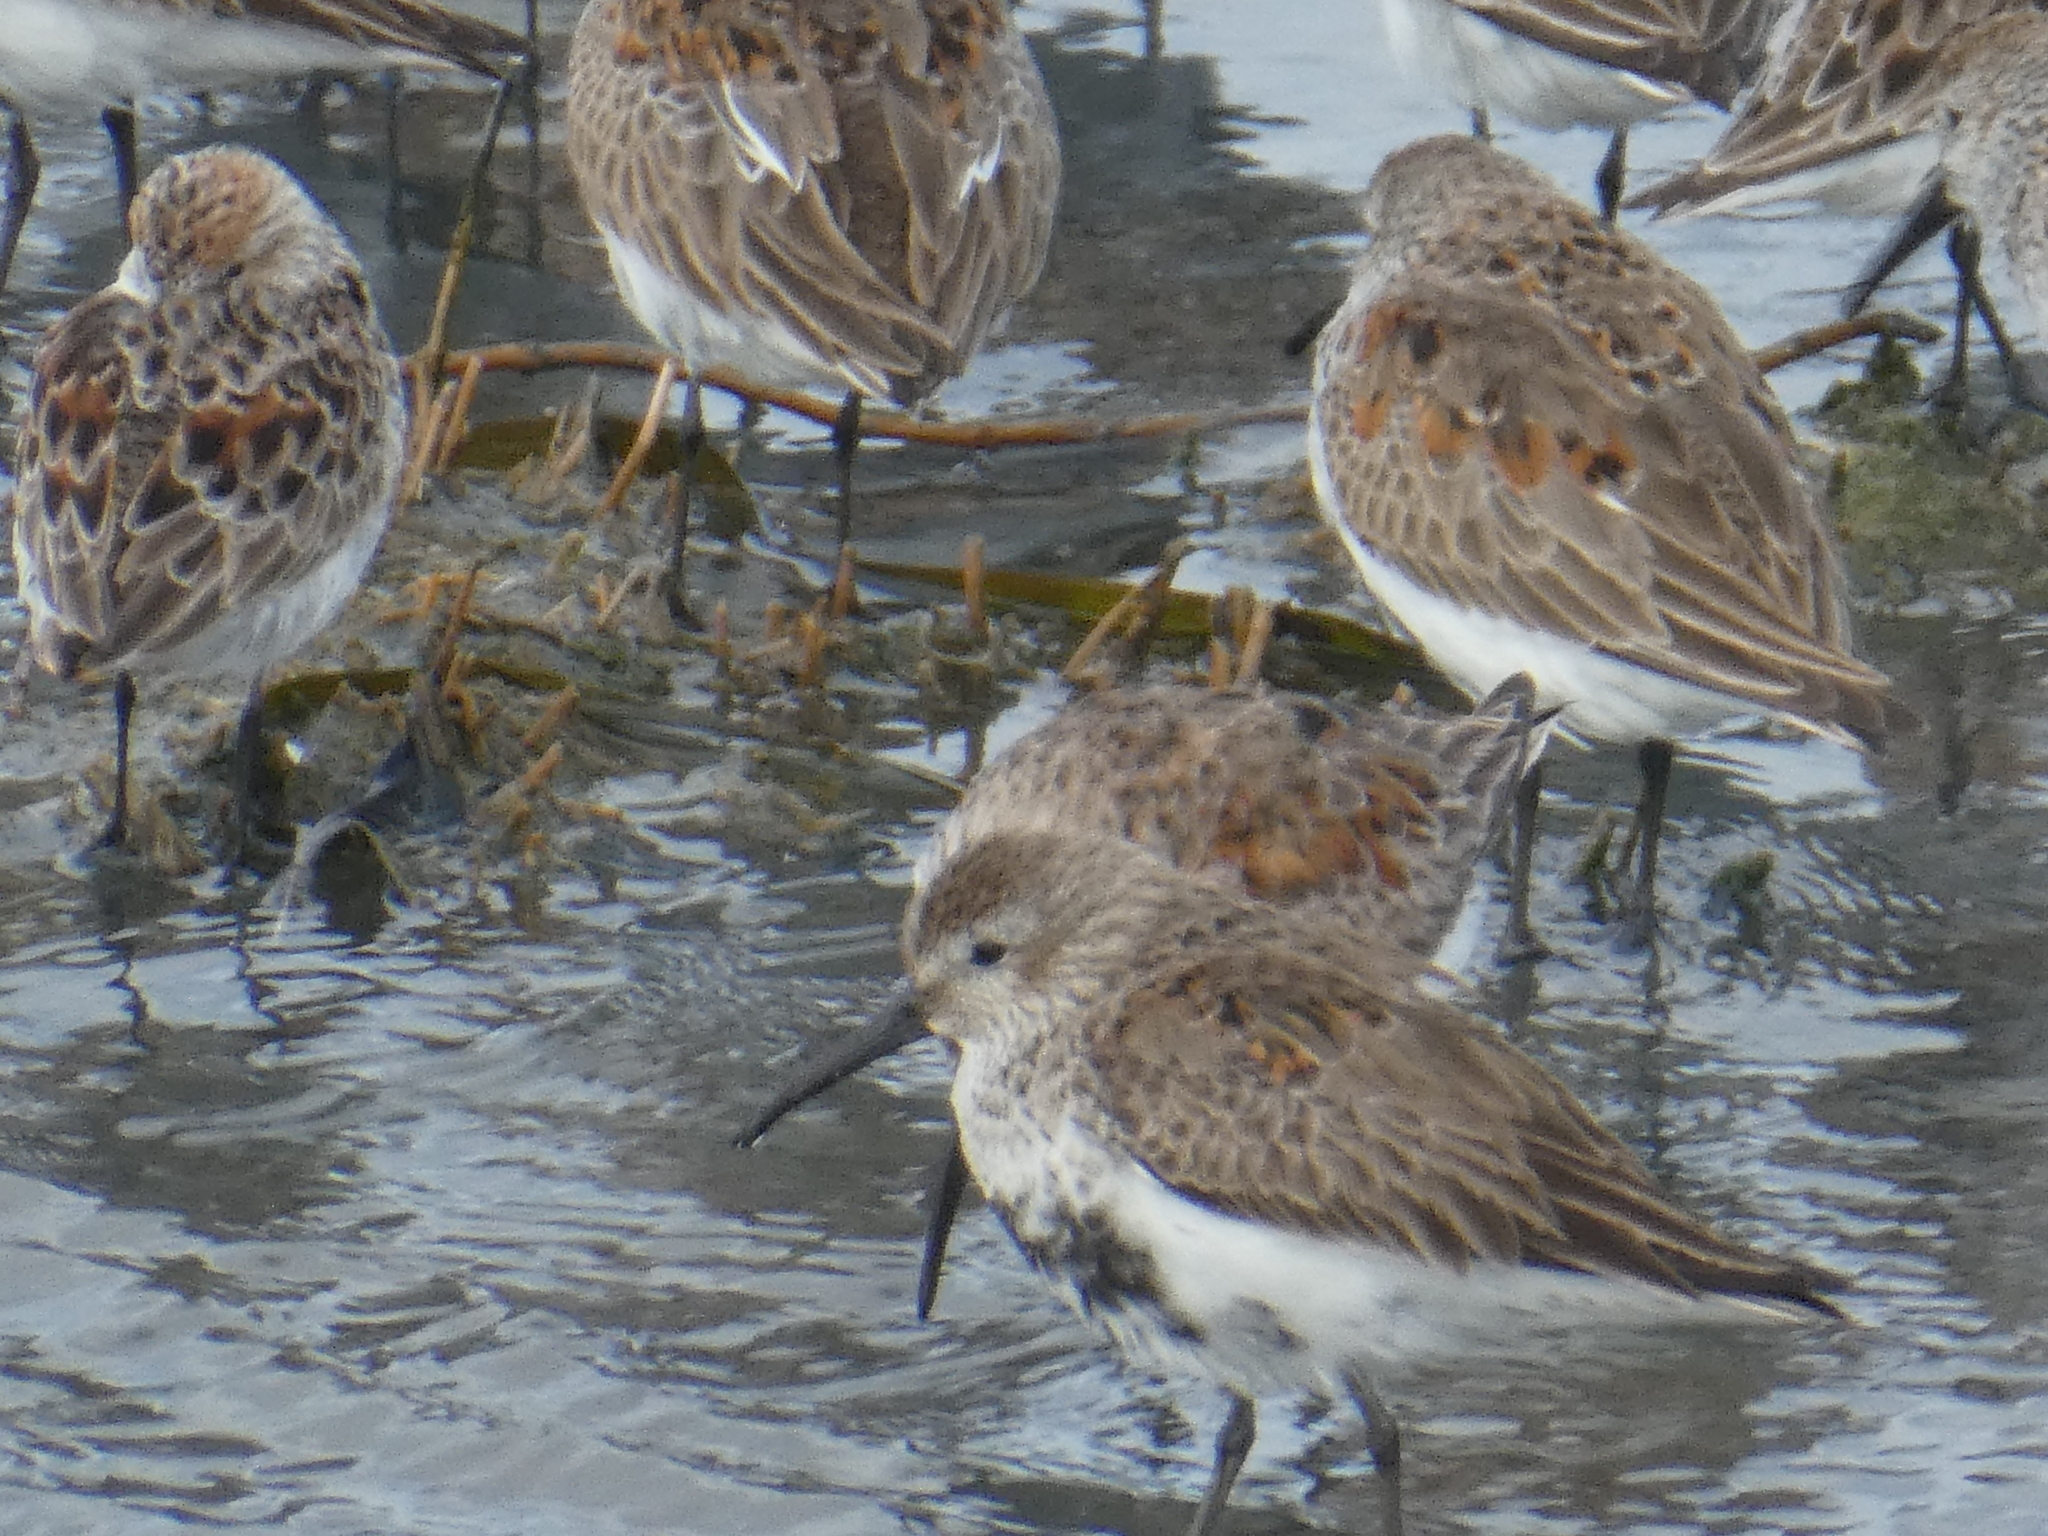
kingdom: Animalia
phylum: Chordata
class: Aves
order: Charadriiformes
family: Scolopacidae
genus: Calidris
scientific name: Calidris mauri
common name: Western sandpiper
